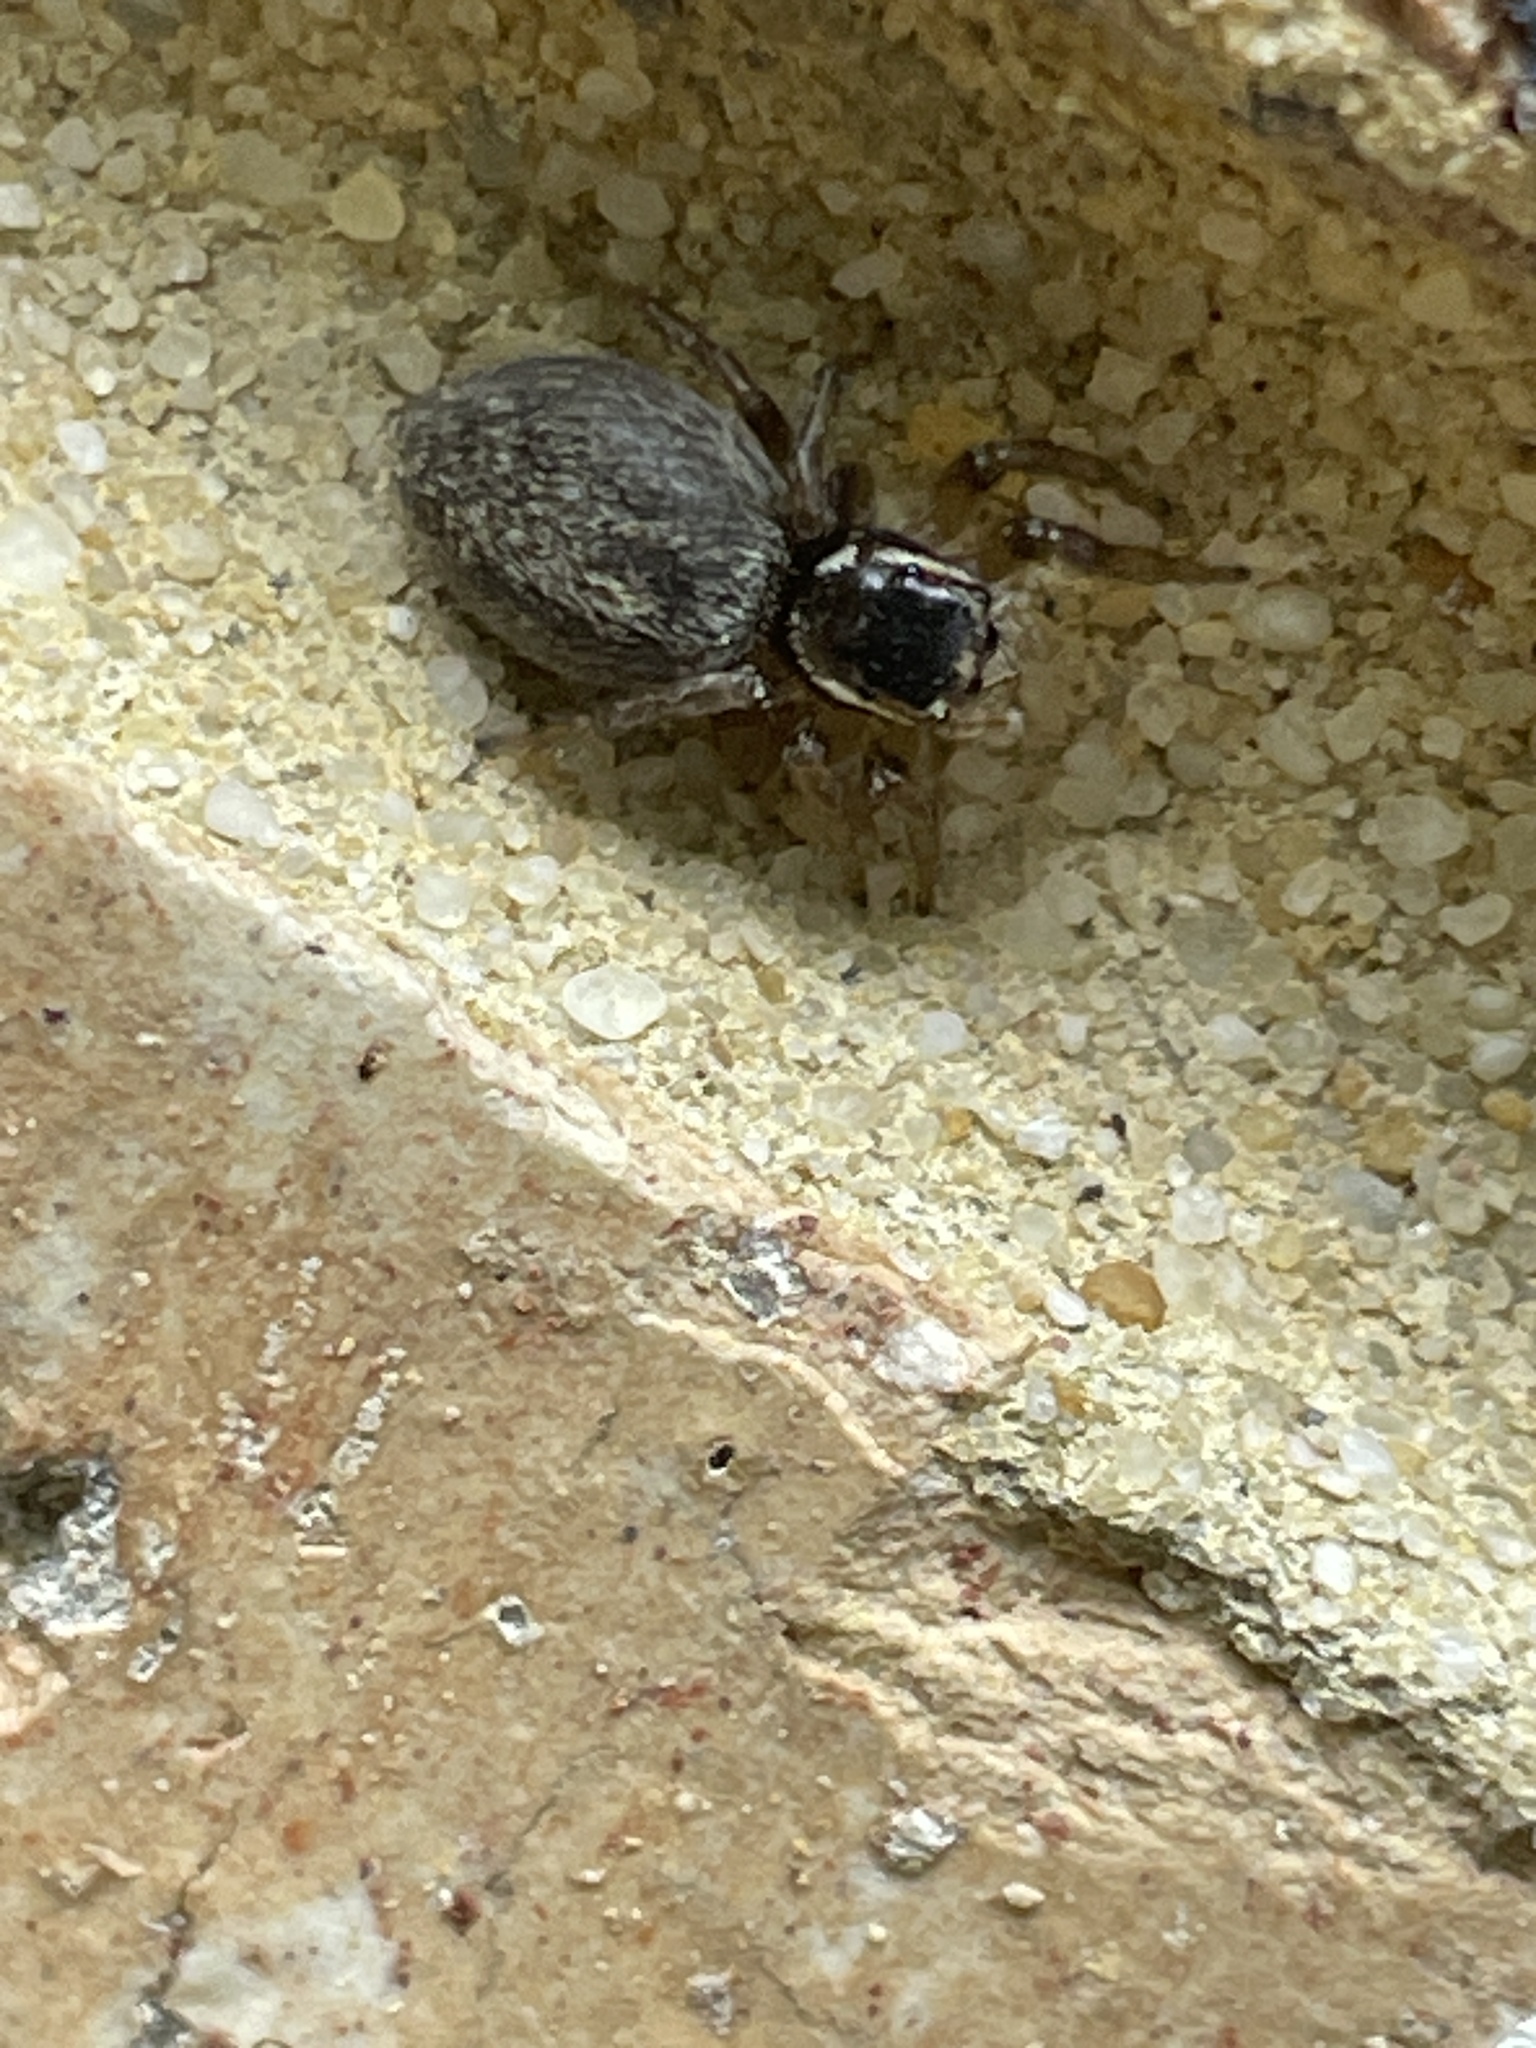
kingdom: Animalia
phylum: Arthropoda
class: Arachnida
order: Araneae
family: Salticidae
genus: Maratus
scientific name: Maratus griseus
